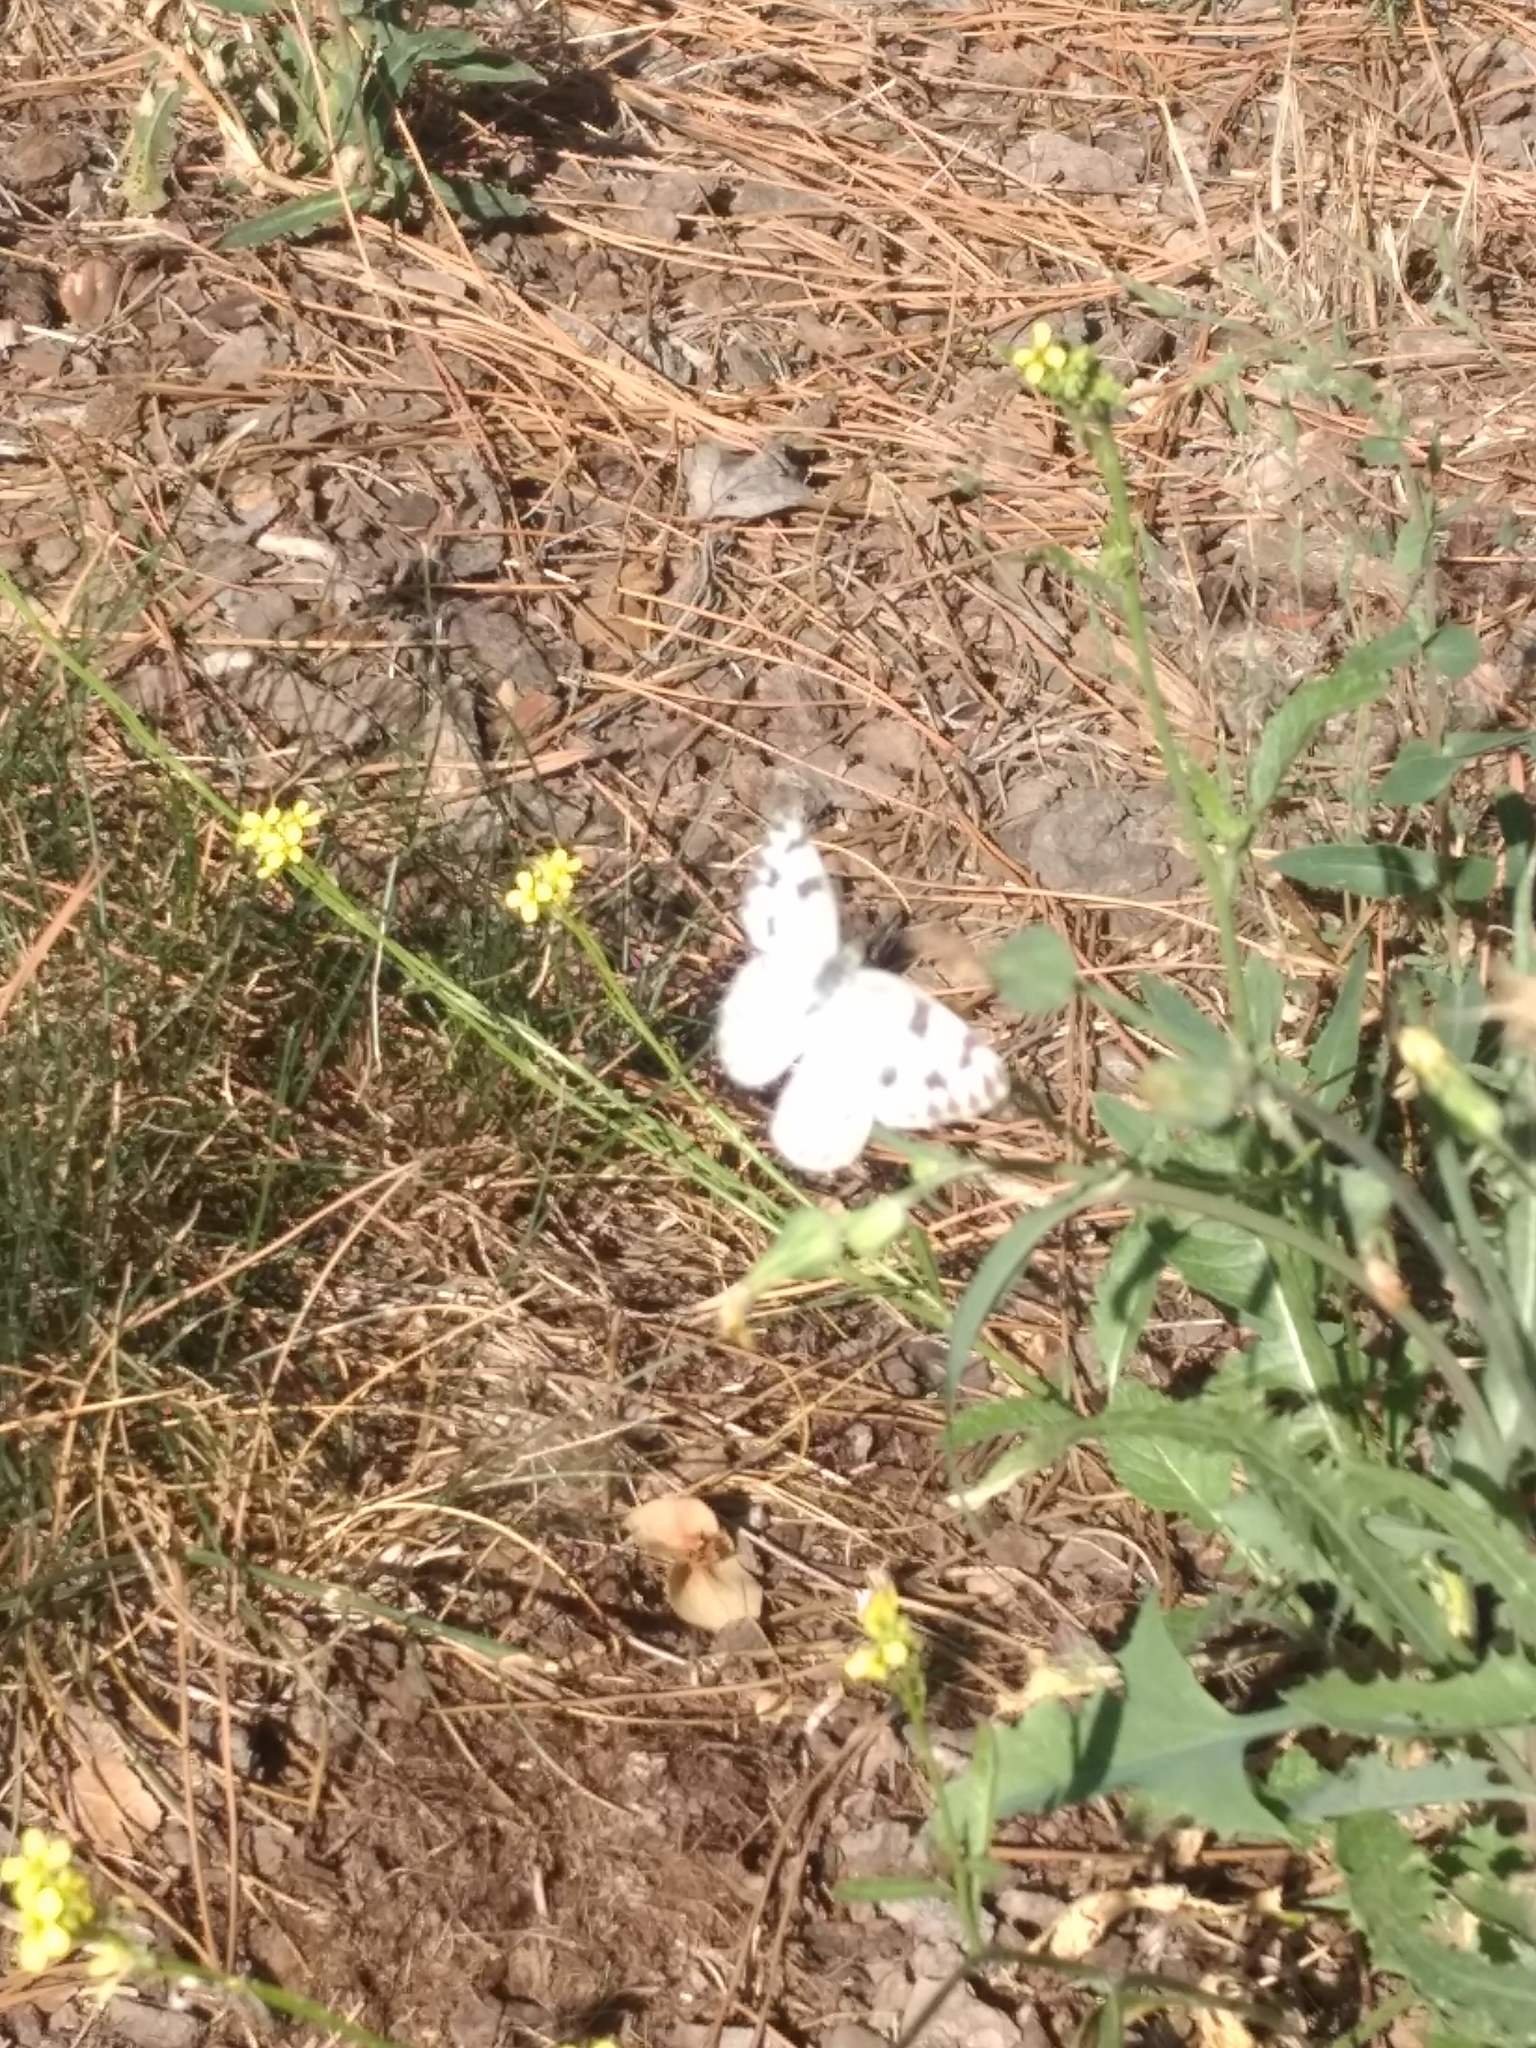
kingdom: Animalia
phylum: Arthropoda
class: Insecta
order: Lepidoptera
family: Pieridae
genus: Pontia
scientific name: Pontia protodice
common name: Checkered white
